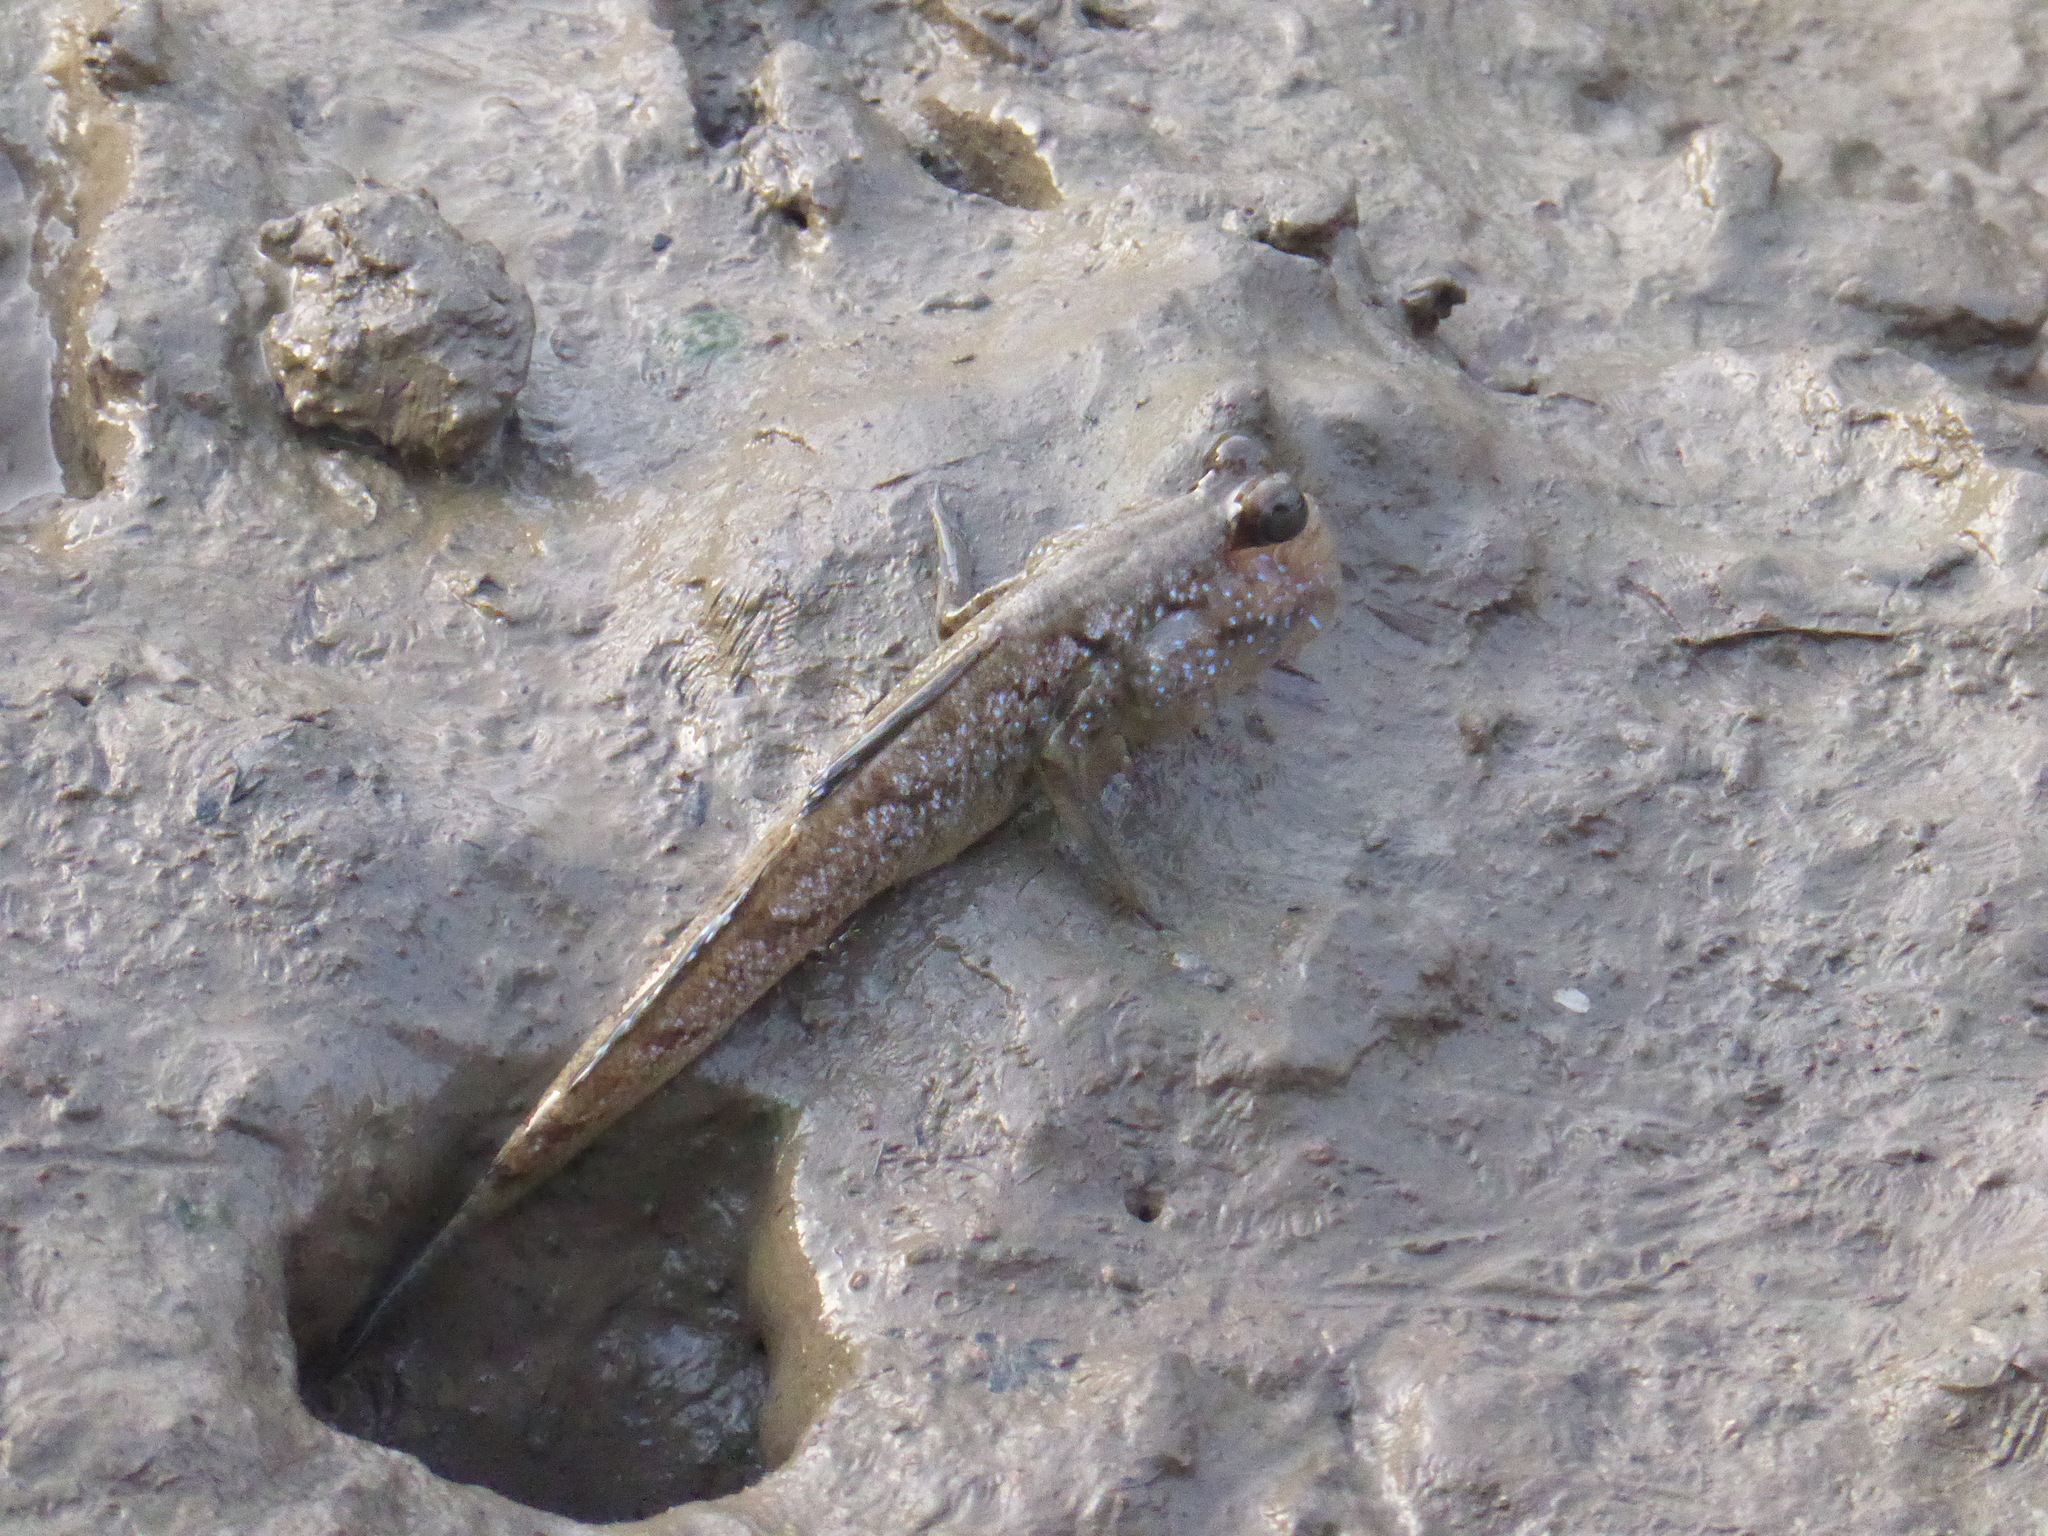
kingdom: Animalia
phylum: Chordata
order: Perciformes
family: Gobiidae
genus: Periophthalmus
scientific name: Periophthalmus barbarus
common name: Atlantic mudskipper
